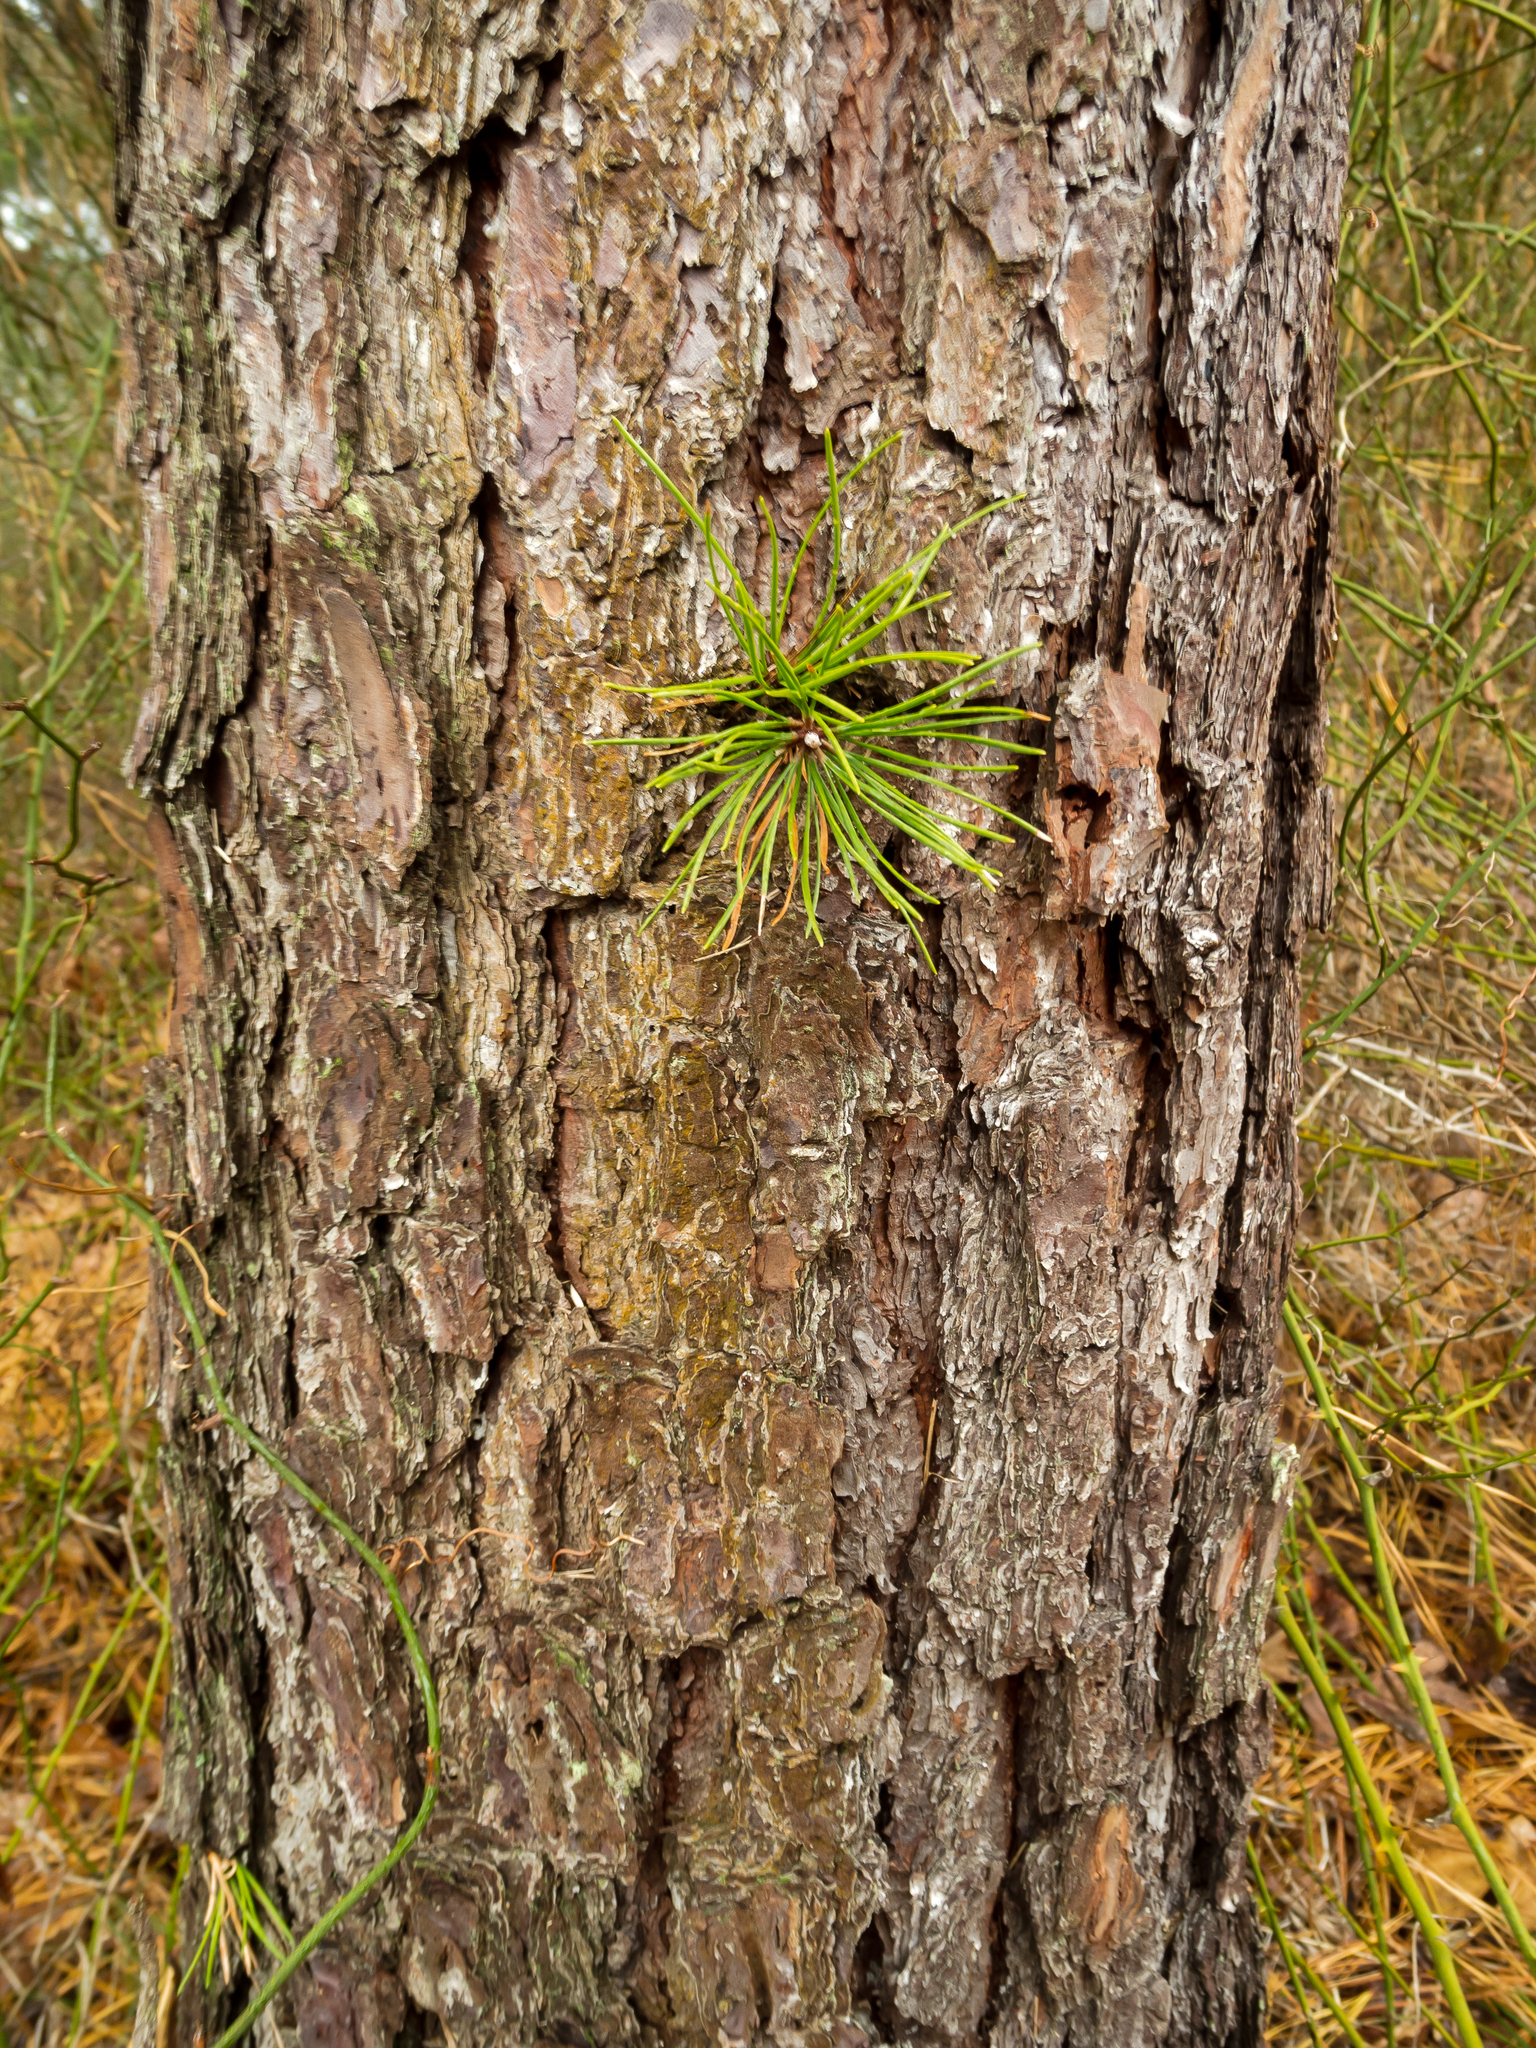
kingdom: Plantae
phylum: Tracheophyta
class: Pinopsida
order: Pinales
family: Pinaceae
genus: Pinus
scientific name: Pinus rigida
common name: Pitch pine
